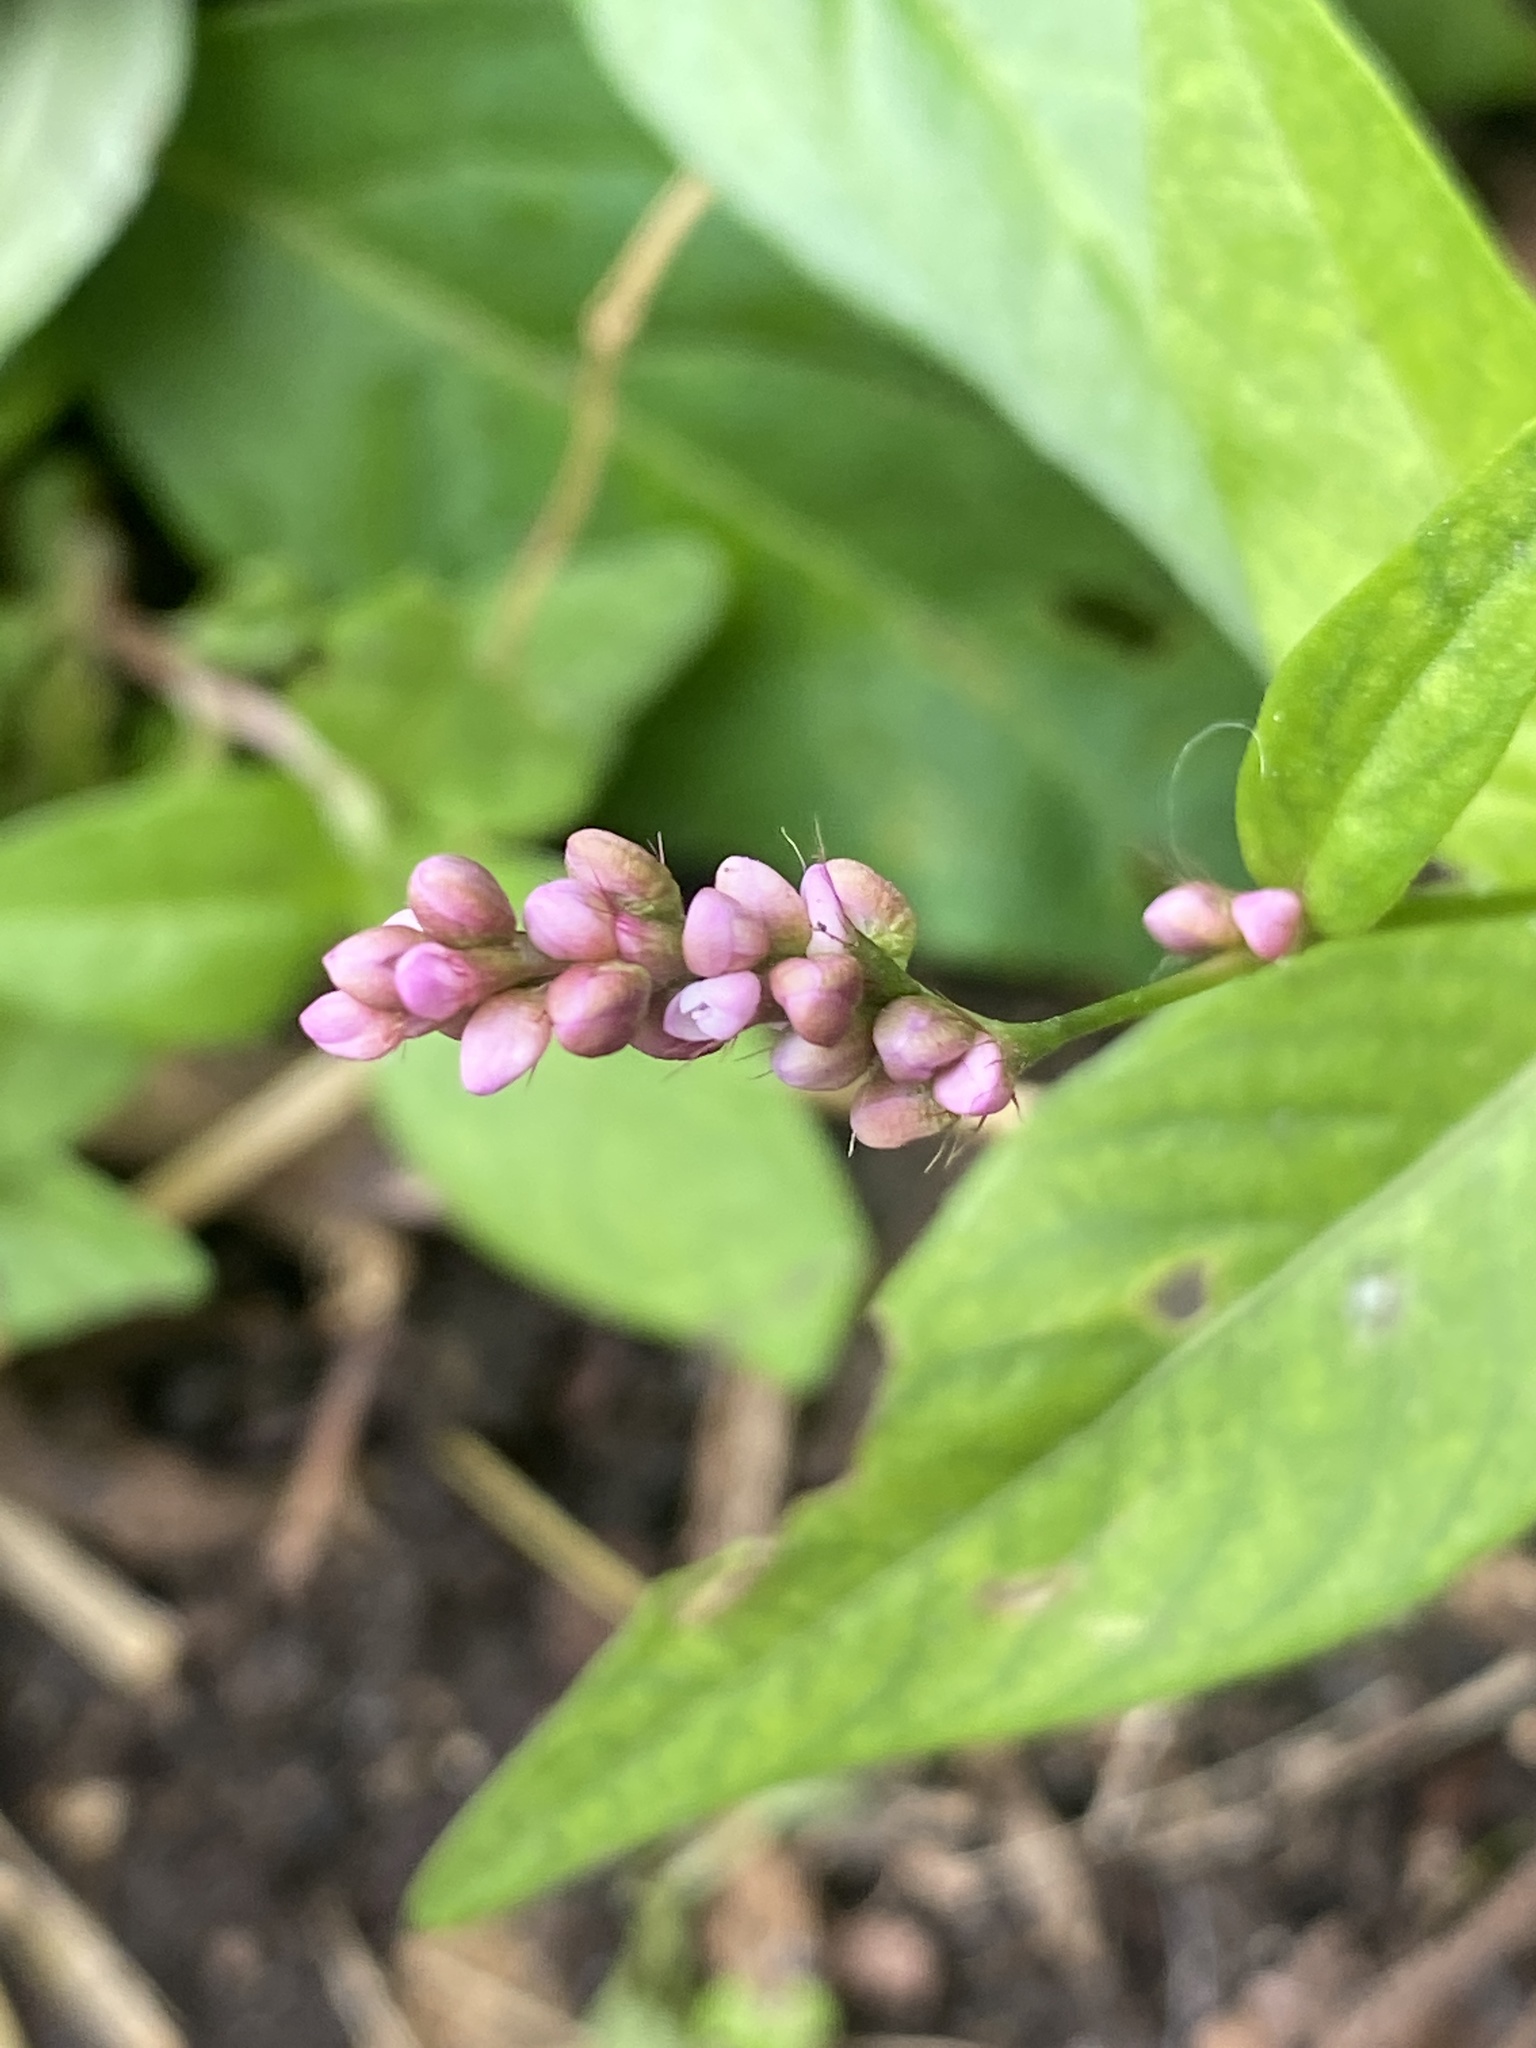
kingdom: Plantae
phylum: Tracheophyta
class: Magnoliopsida
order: Caryophyllales
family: Polygonaceae
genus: Persicaria
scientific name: Persicaria longiseta
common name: Bristly lady's-thumb
